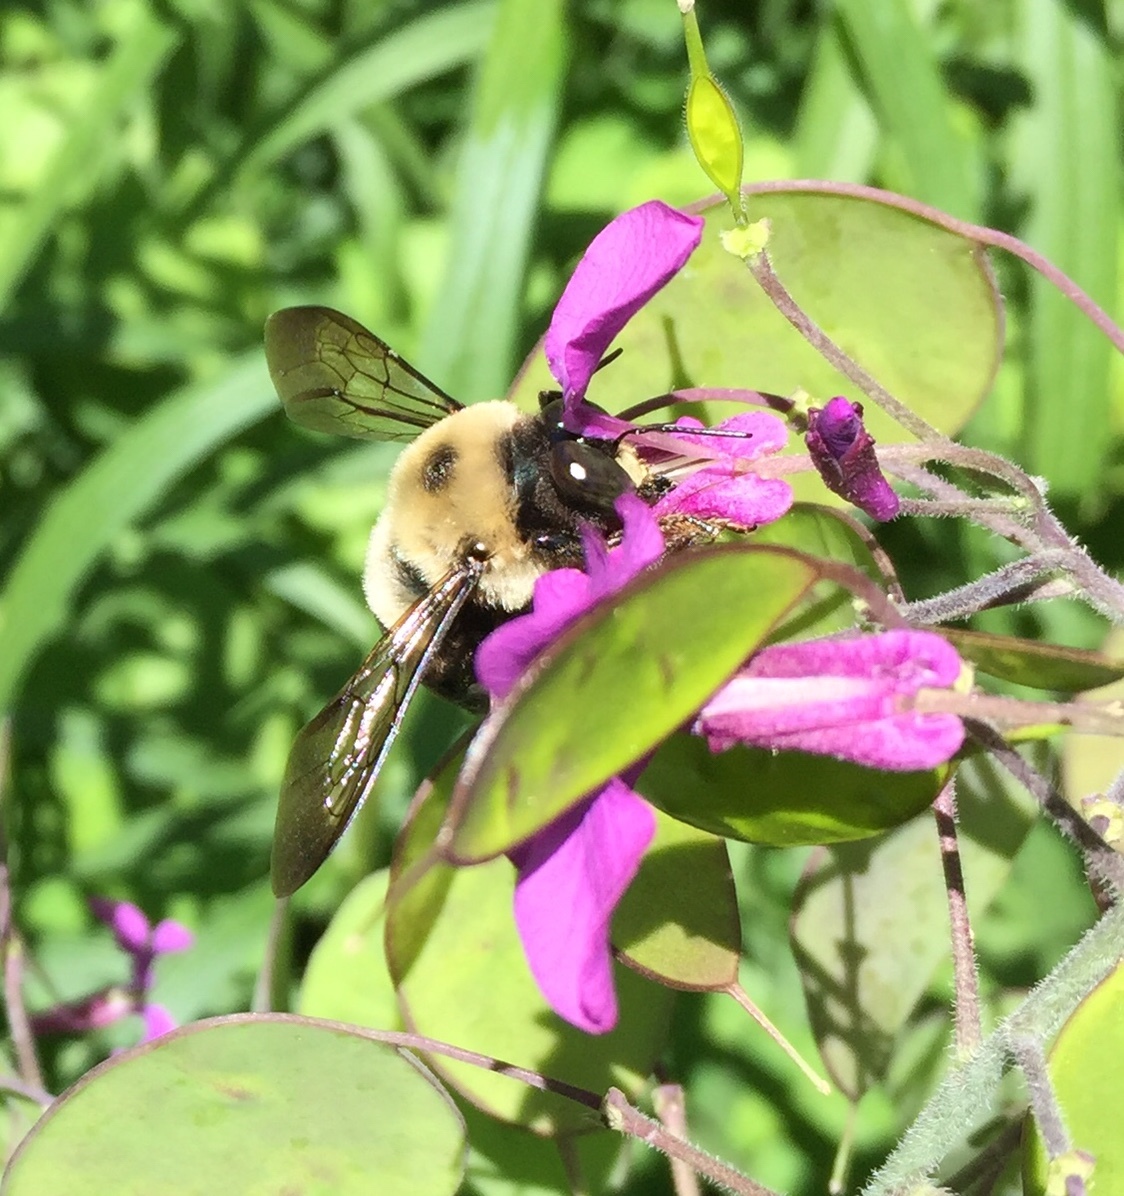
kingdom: Animalia
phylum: Arthropoda
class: Insecta
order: Hymenoptera
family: Apidae
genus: Xylocopa
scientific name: Xylocopa virginica
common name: Carpenter bee
